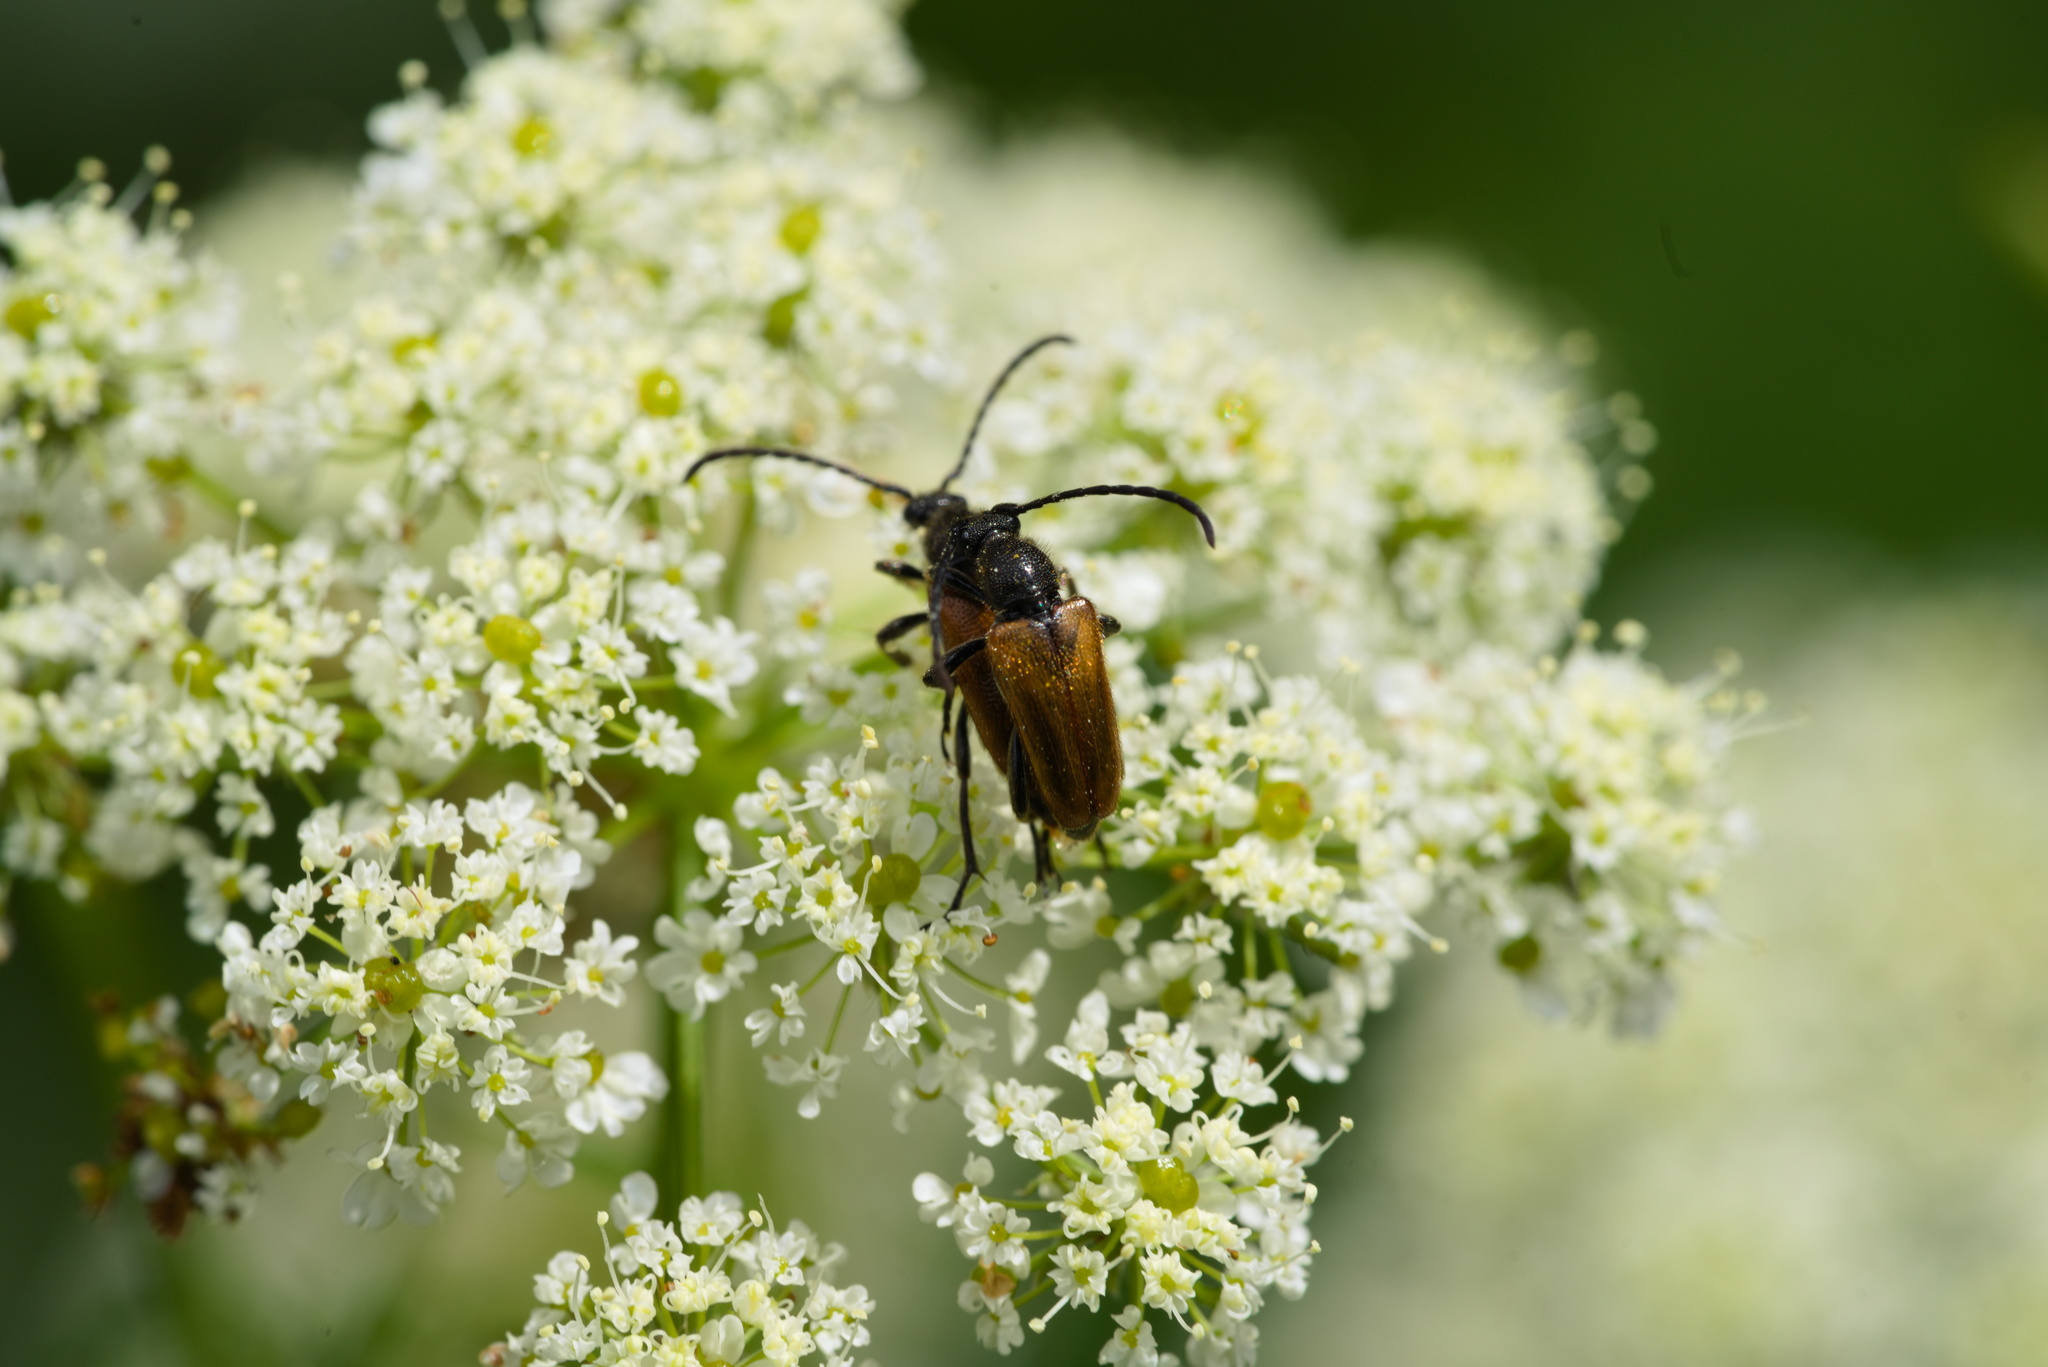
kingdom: Animalia
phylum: Arthropoda
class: Insecta
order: Coleoptera
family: Cerambycidae
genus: Pseudovadonia
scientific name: Pseudovadonia livida
